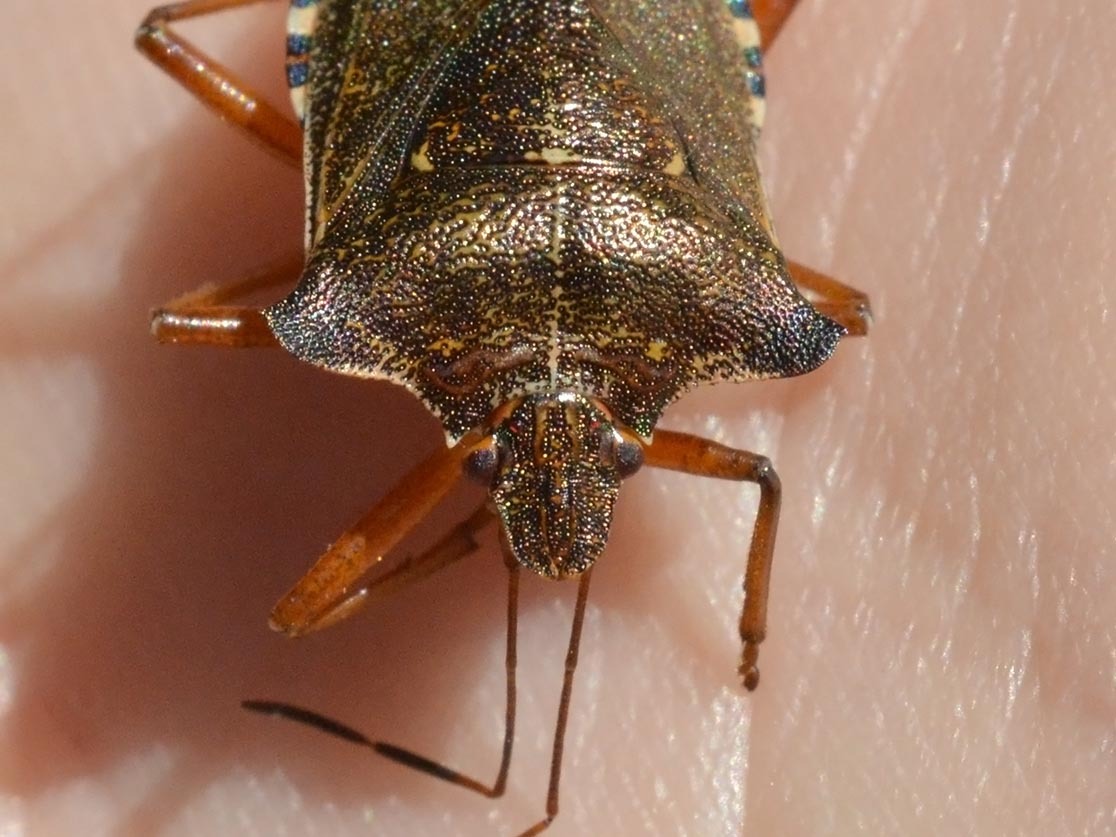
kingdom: Animalia
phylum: Arthropoda
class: Insecta
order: Hemiptera
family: Pentatomidae
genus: Pentatoma
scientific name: Pentatoma rufipes
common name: Forest bug
